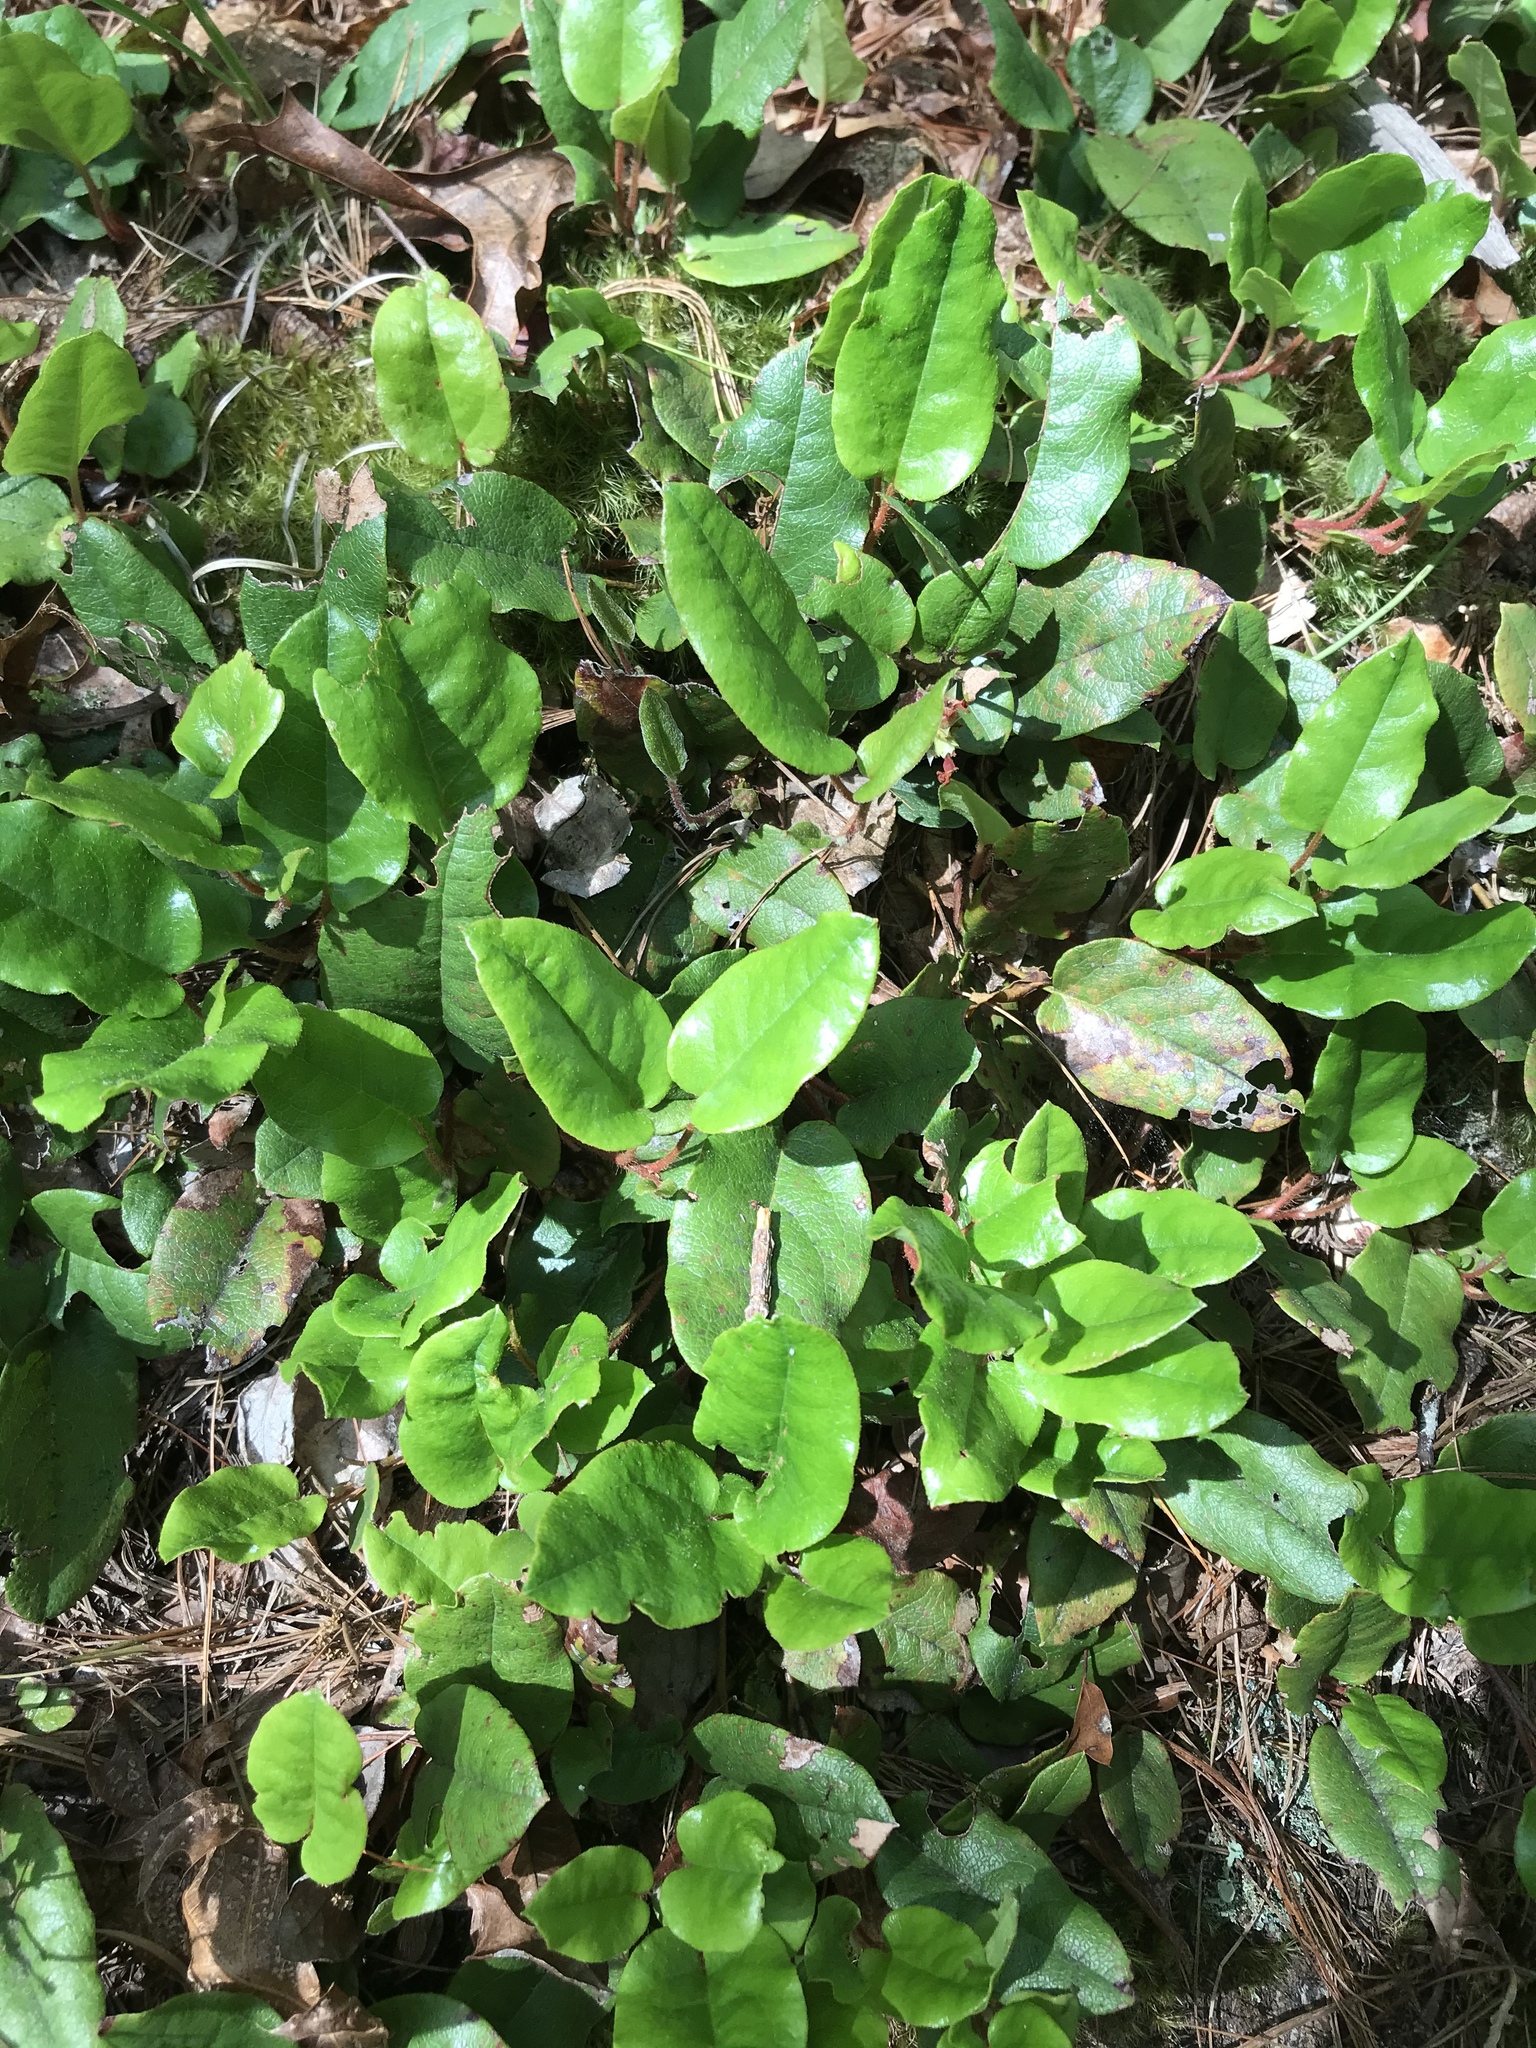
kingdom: Plantae
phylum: Tracheophyta
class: Magnoliopsida
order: Ericales
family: Ericaceae
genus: Epigaea
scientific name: Epigaea repens
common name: Gravelroot
